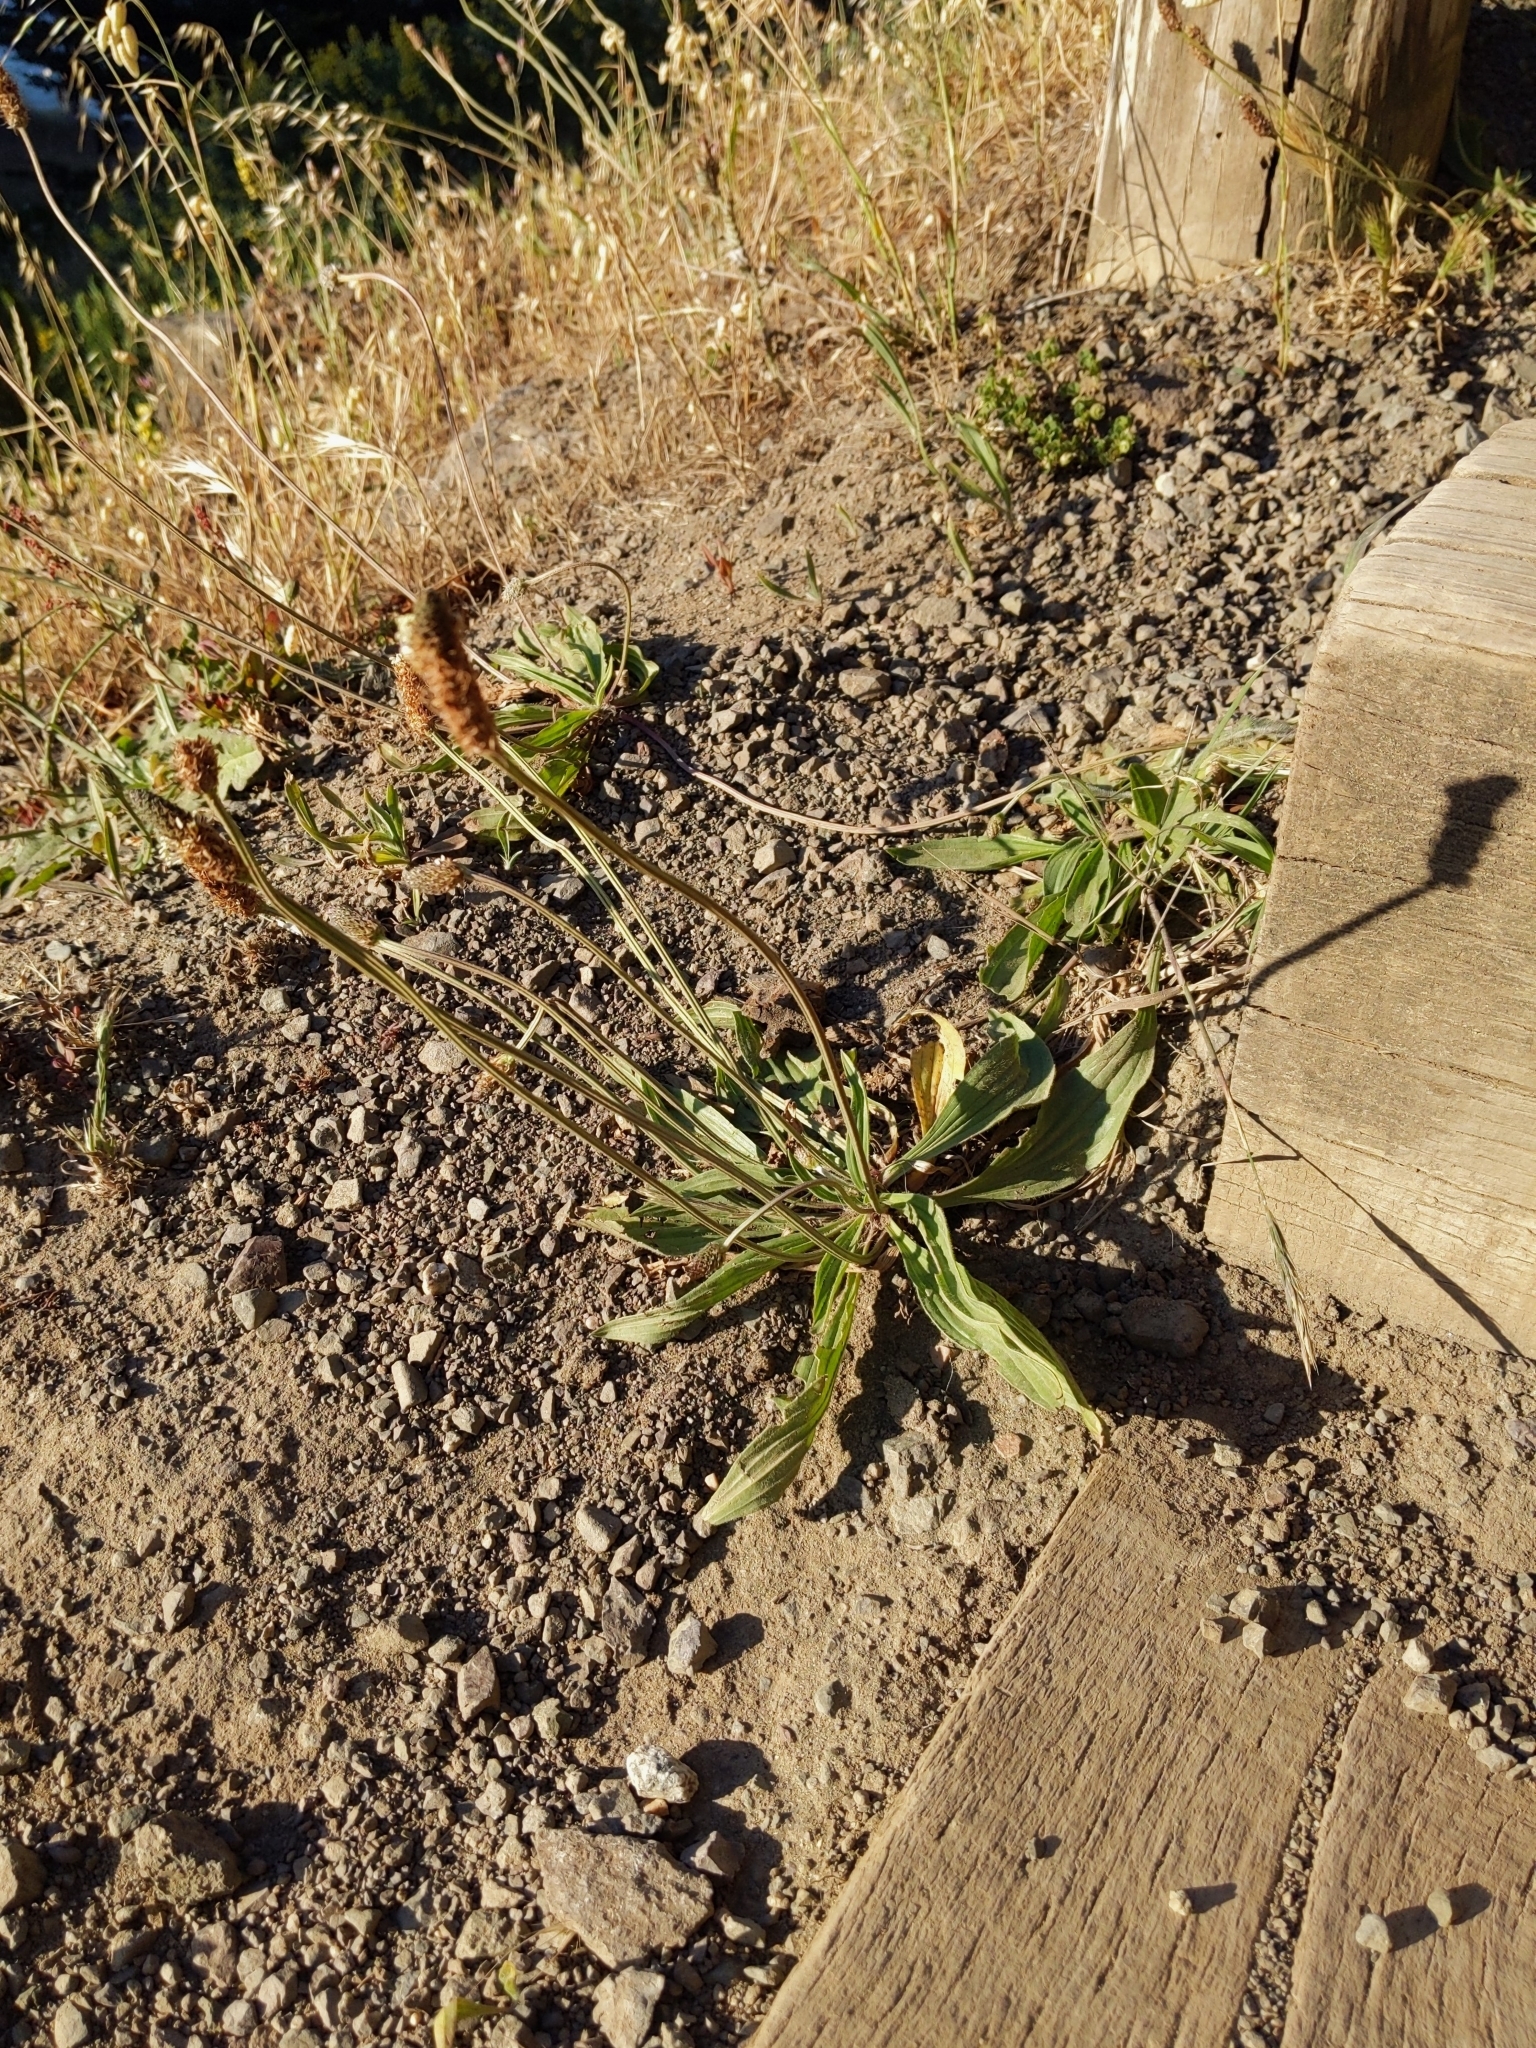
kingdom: Plantae
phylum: Tracheophyta
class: Magnoliopsida
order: Lamiales
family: Plantaginaceae
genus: Plantago
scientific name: Plantago lanceolata
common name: Ribwort plantain
